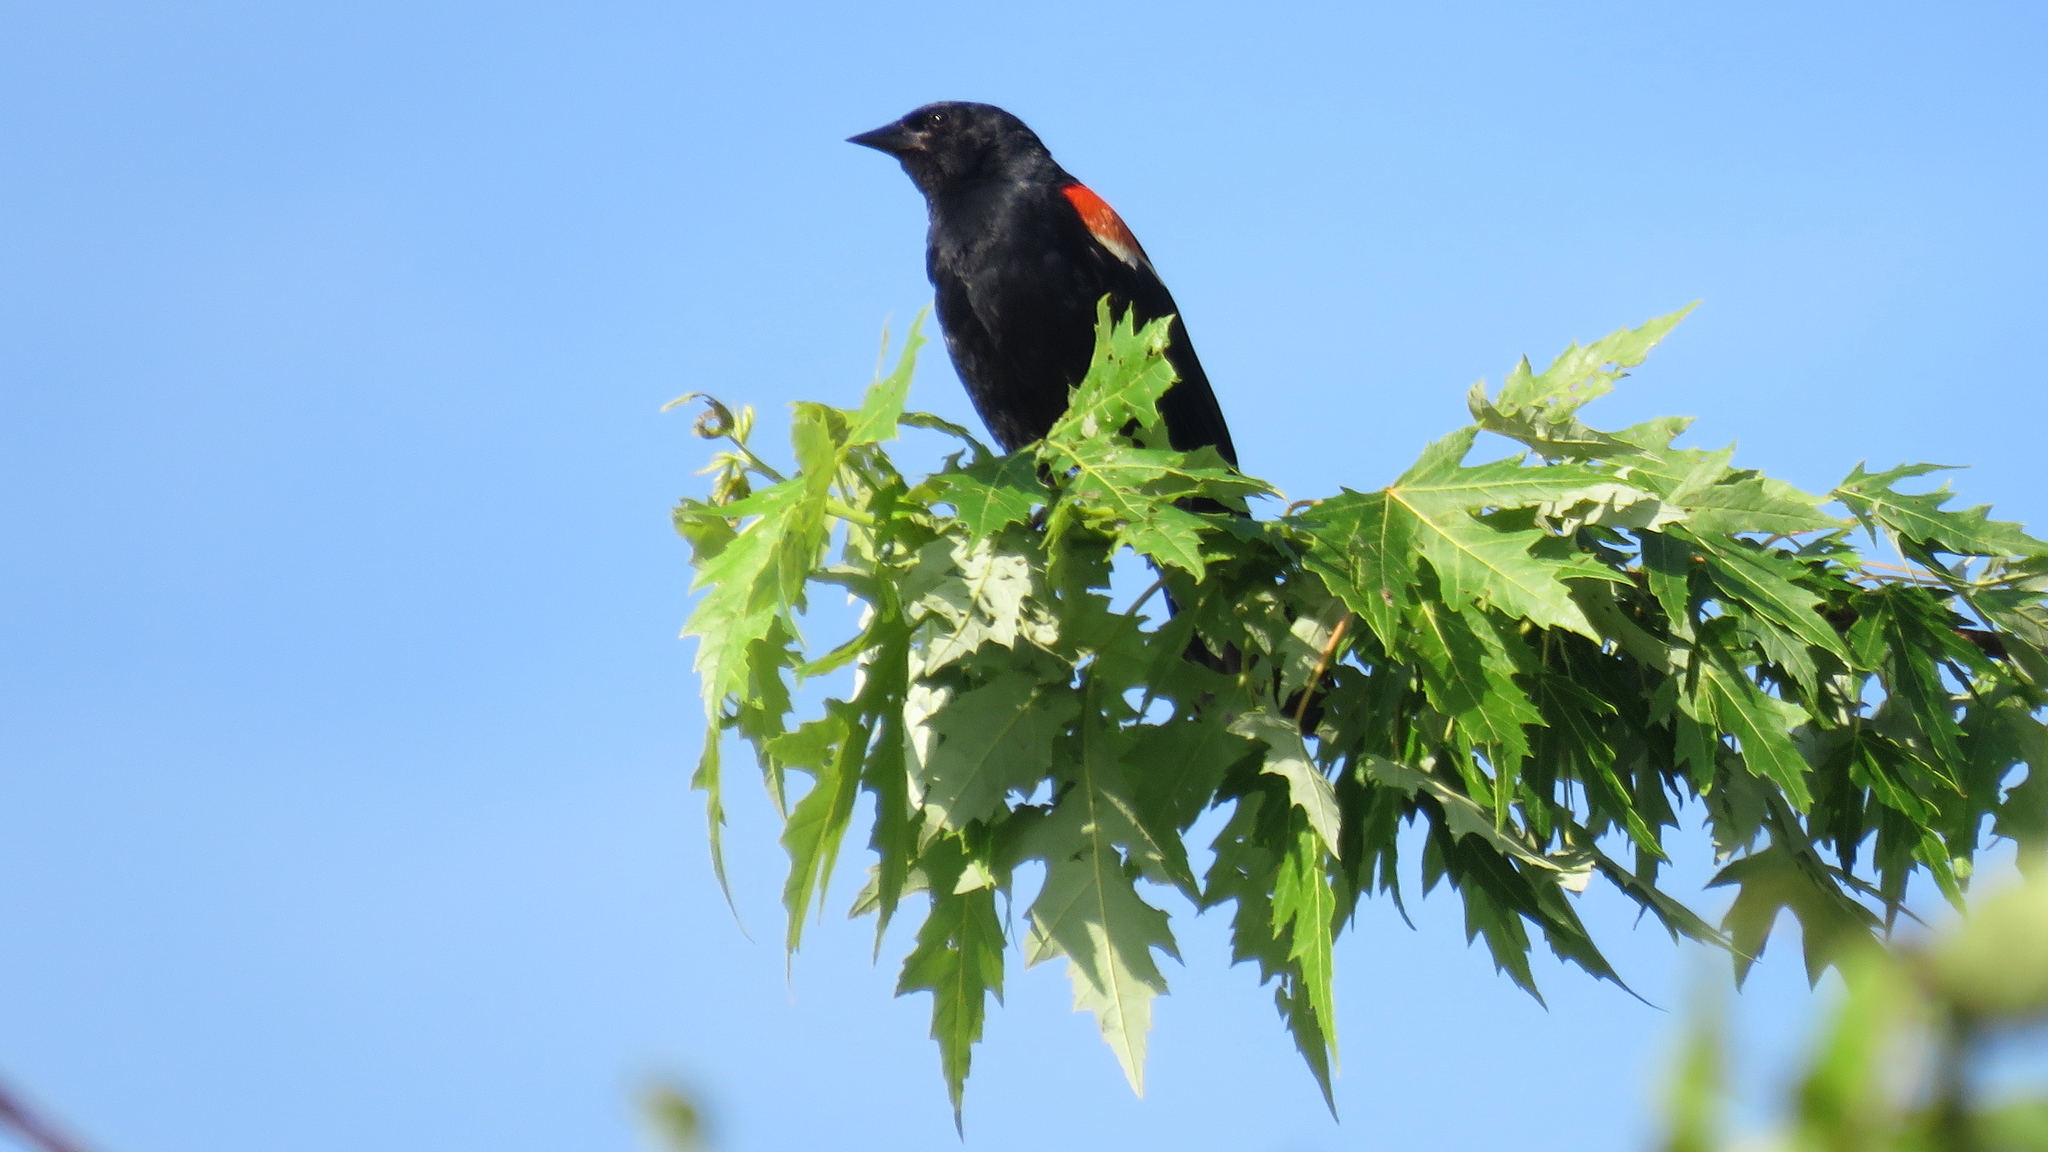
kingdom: Animalia
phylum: Chordata
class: Aves
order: Passeriformes
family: Icteridae
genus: Agelaius
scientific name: Agelaius phoeniceus
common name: Red-winged blackbird
